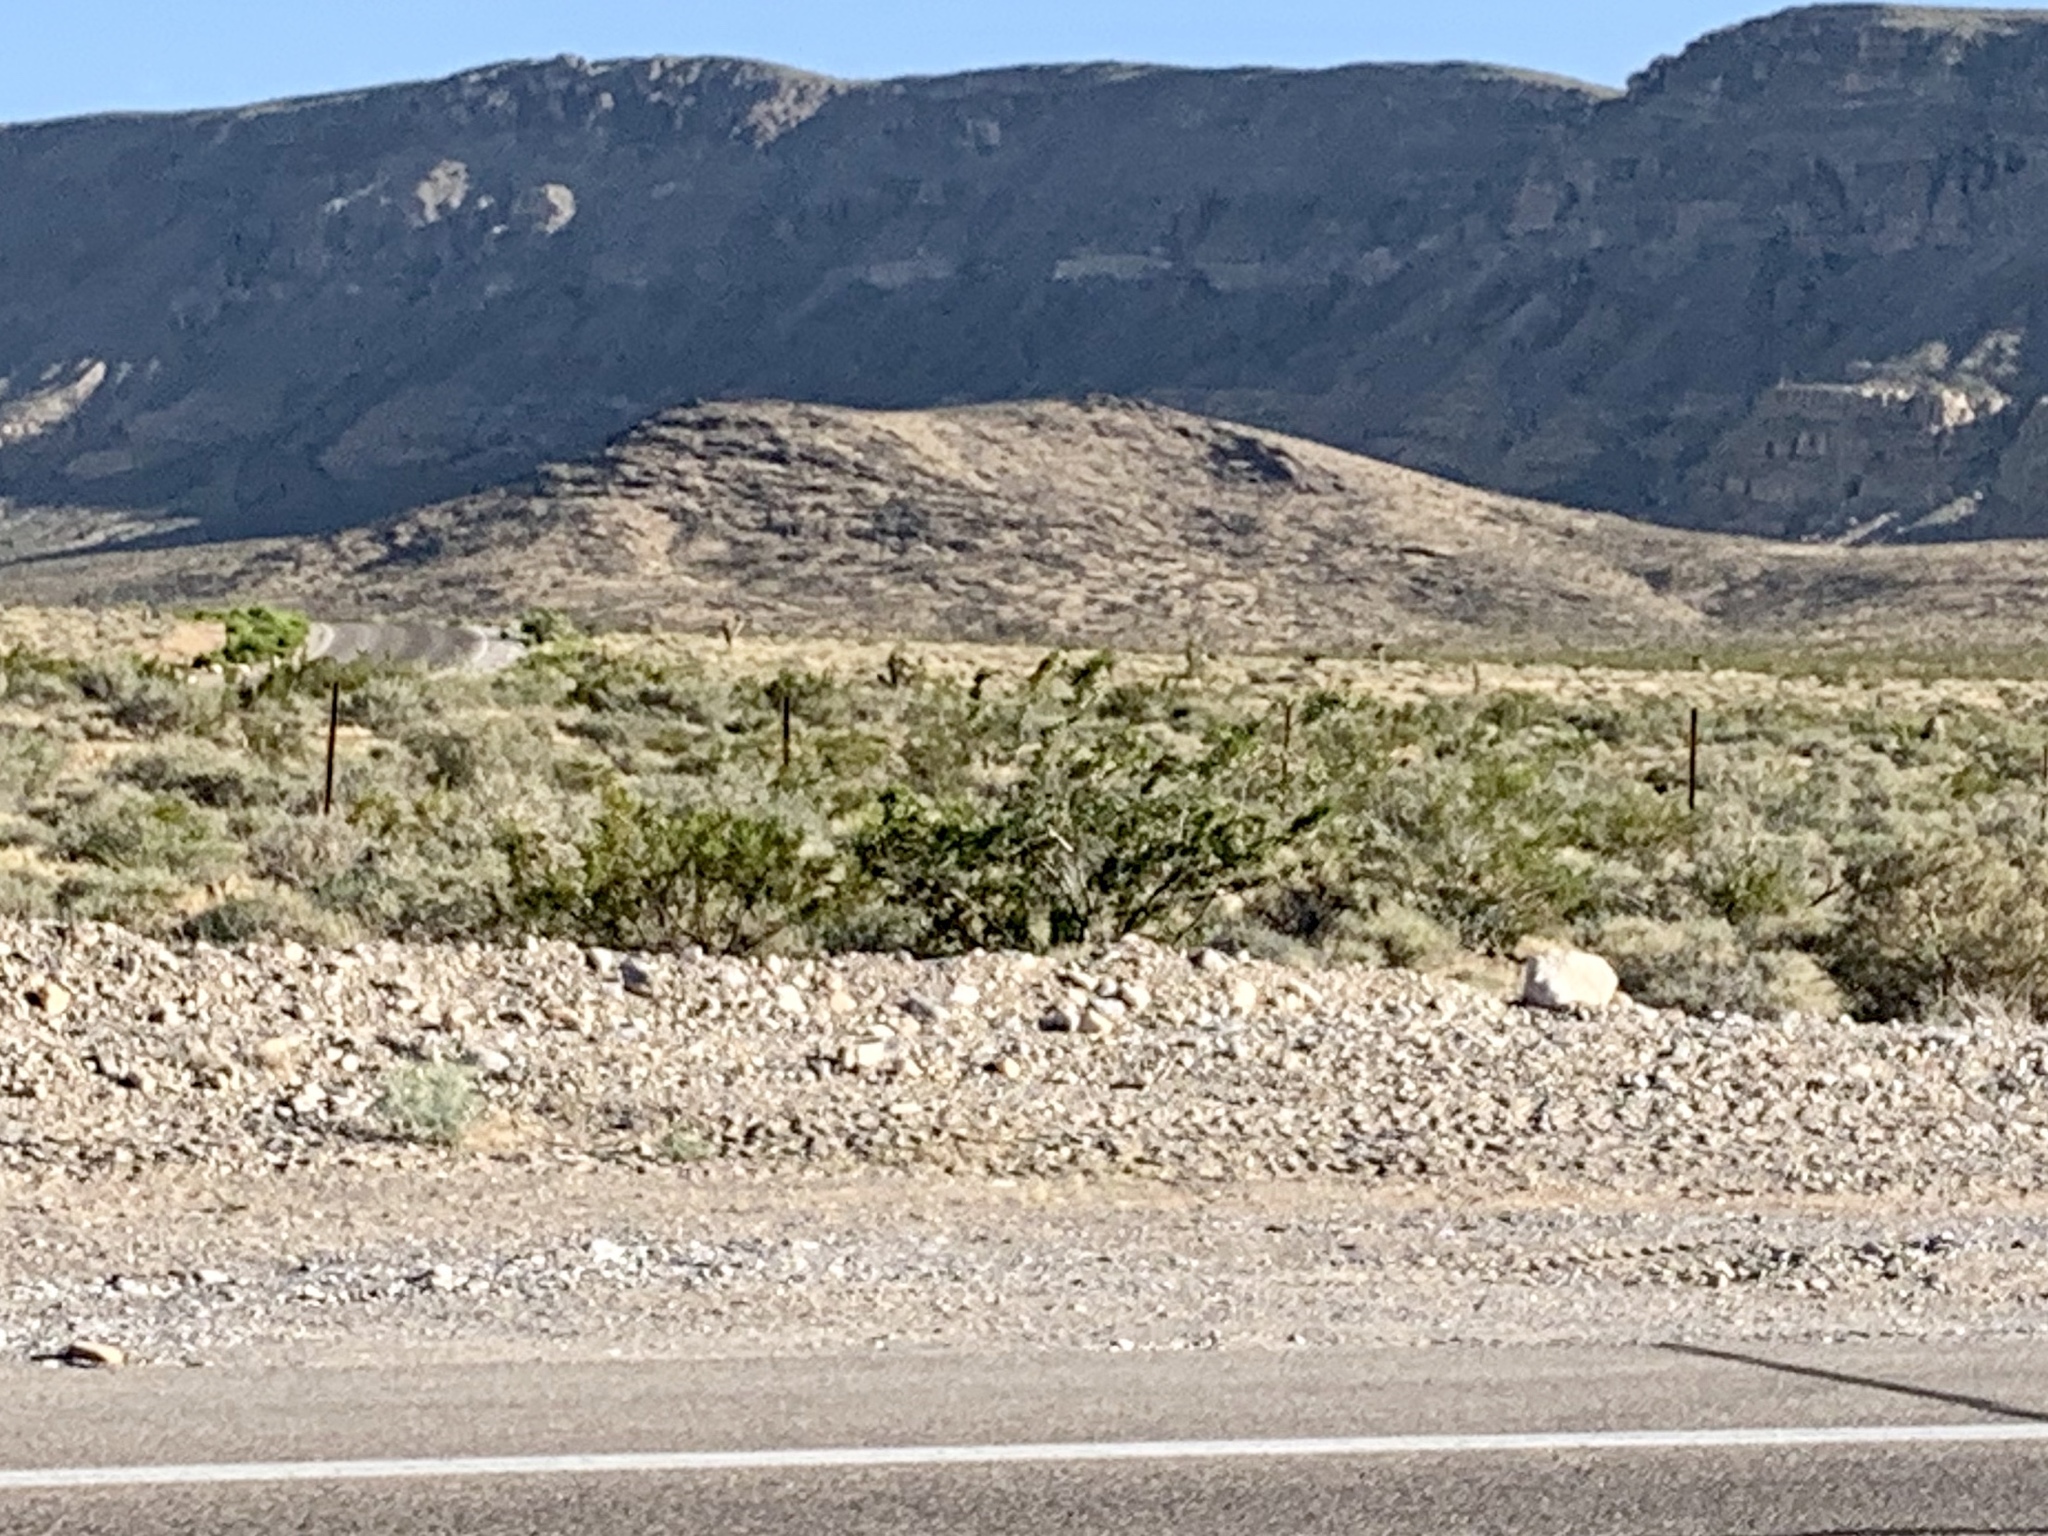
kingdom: Plantae
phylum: Tracheophyta
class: Magnoliopsida
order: Zygophyllales
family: Zygophyllaceae
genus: Larrea
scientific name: Larrea tridentata
